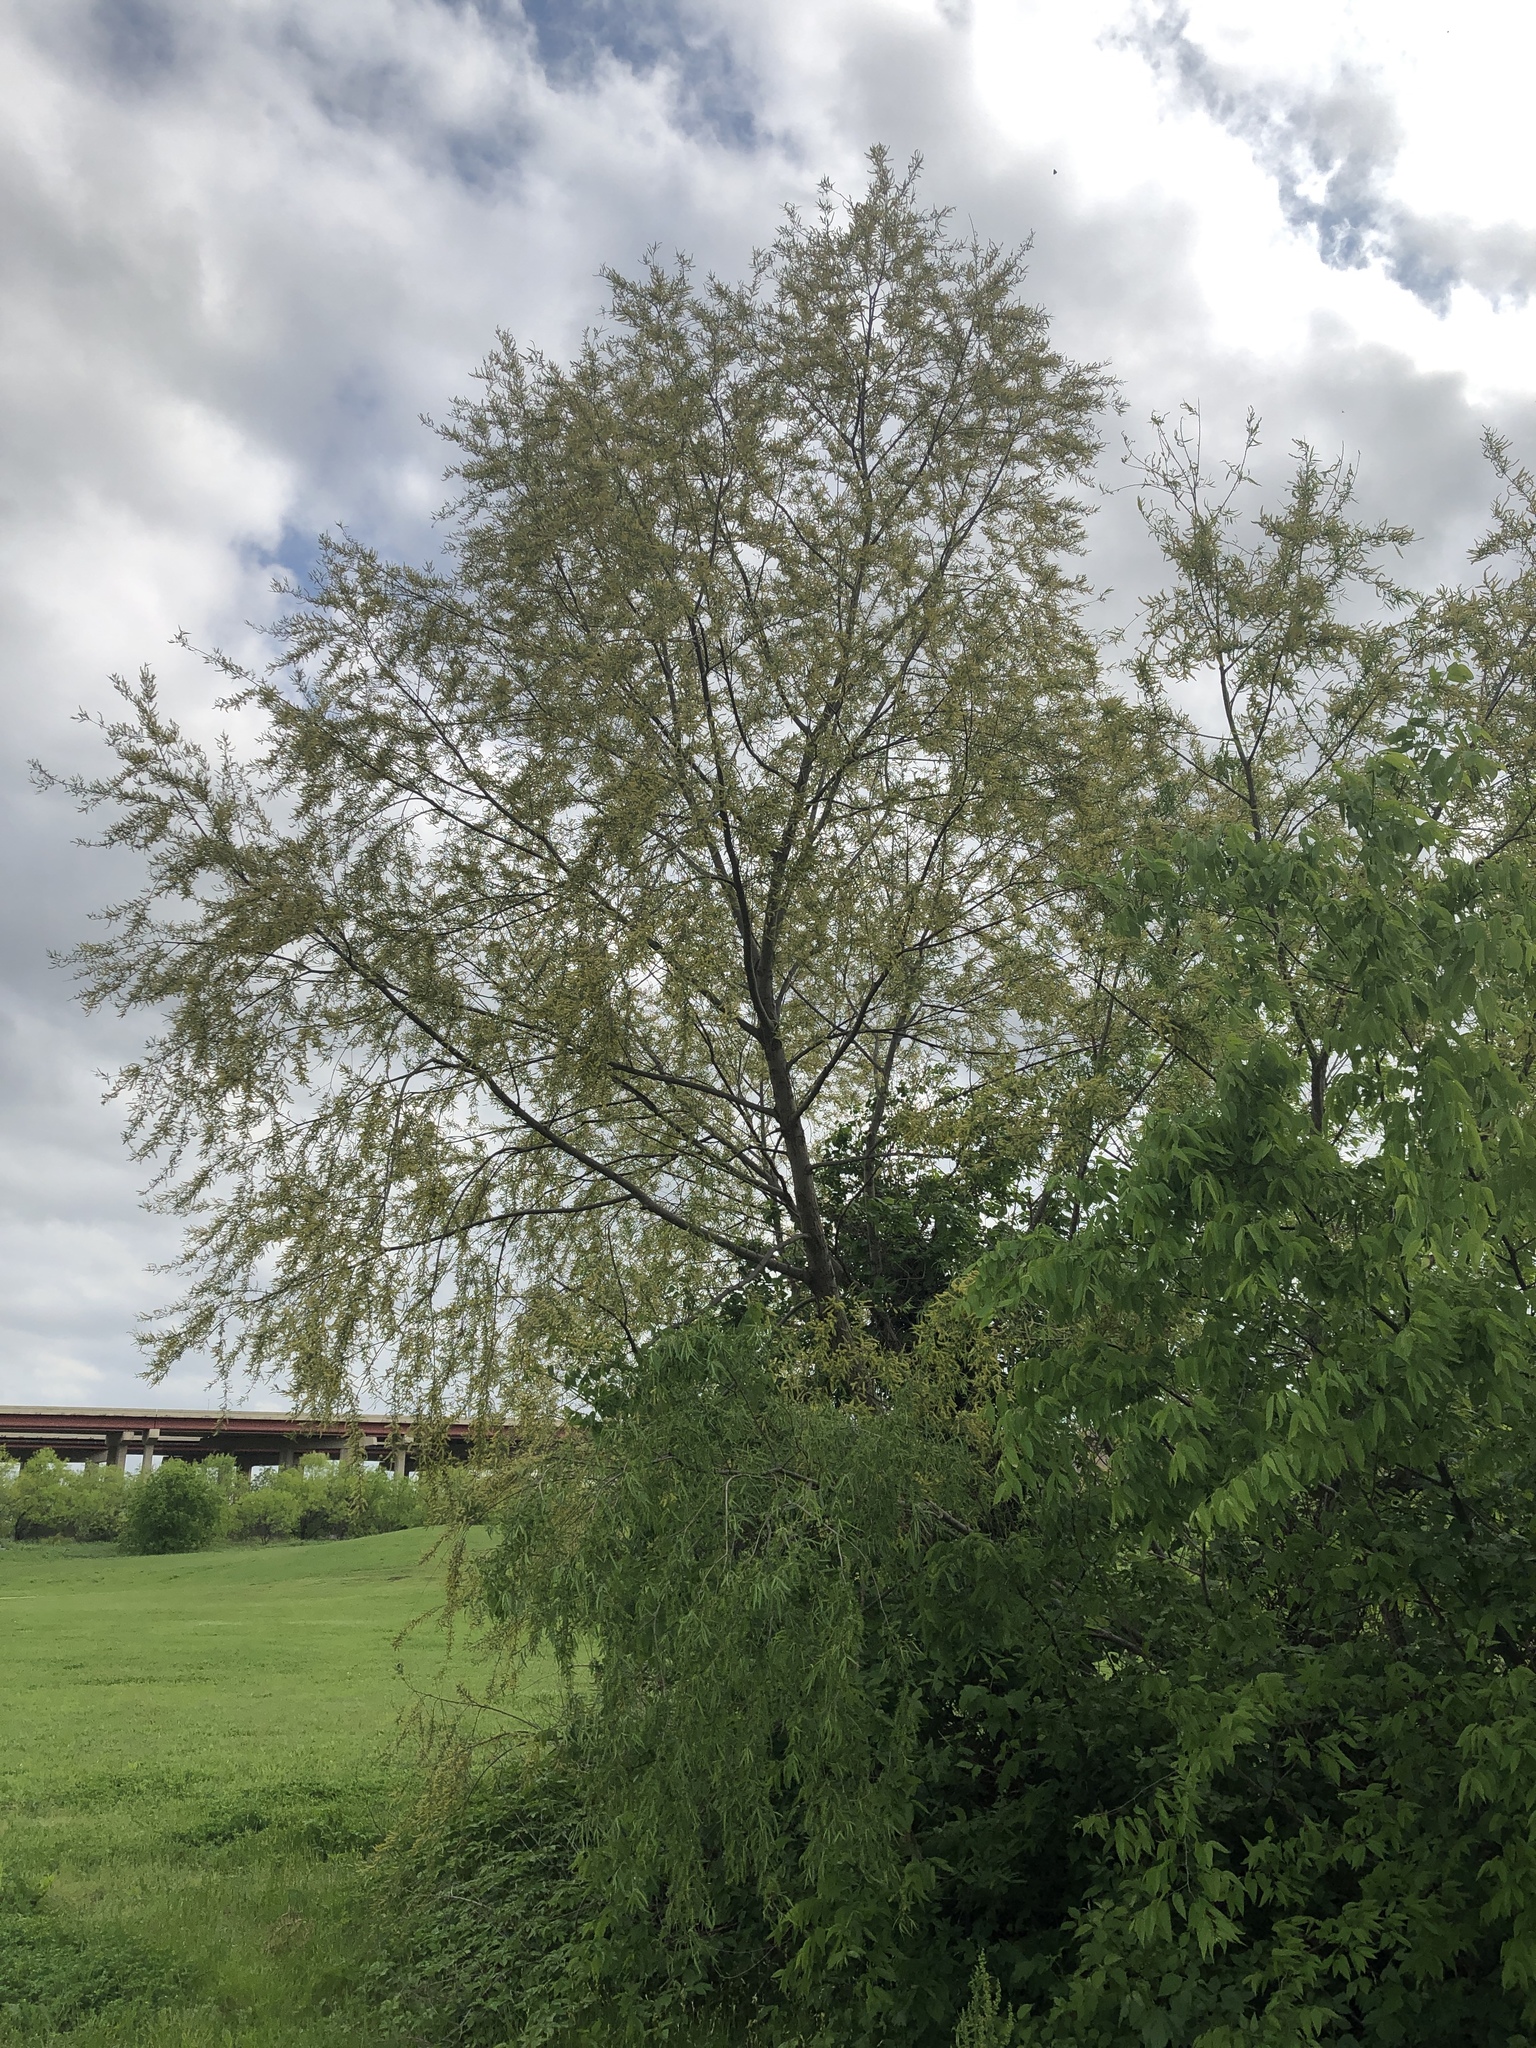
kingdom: Plantae
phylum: Tracheophyta
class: Magnoliopsida
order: Malpighiales
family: Salicaceae
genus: Salix
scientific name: Salix nigra
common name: Black willow
